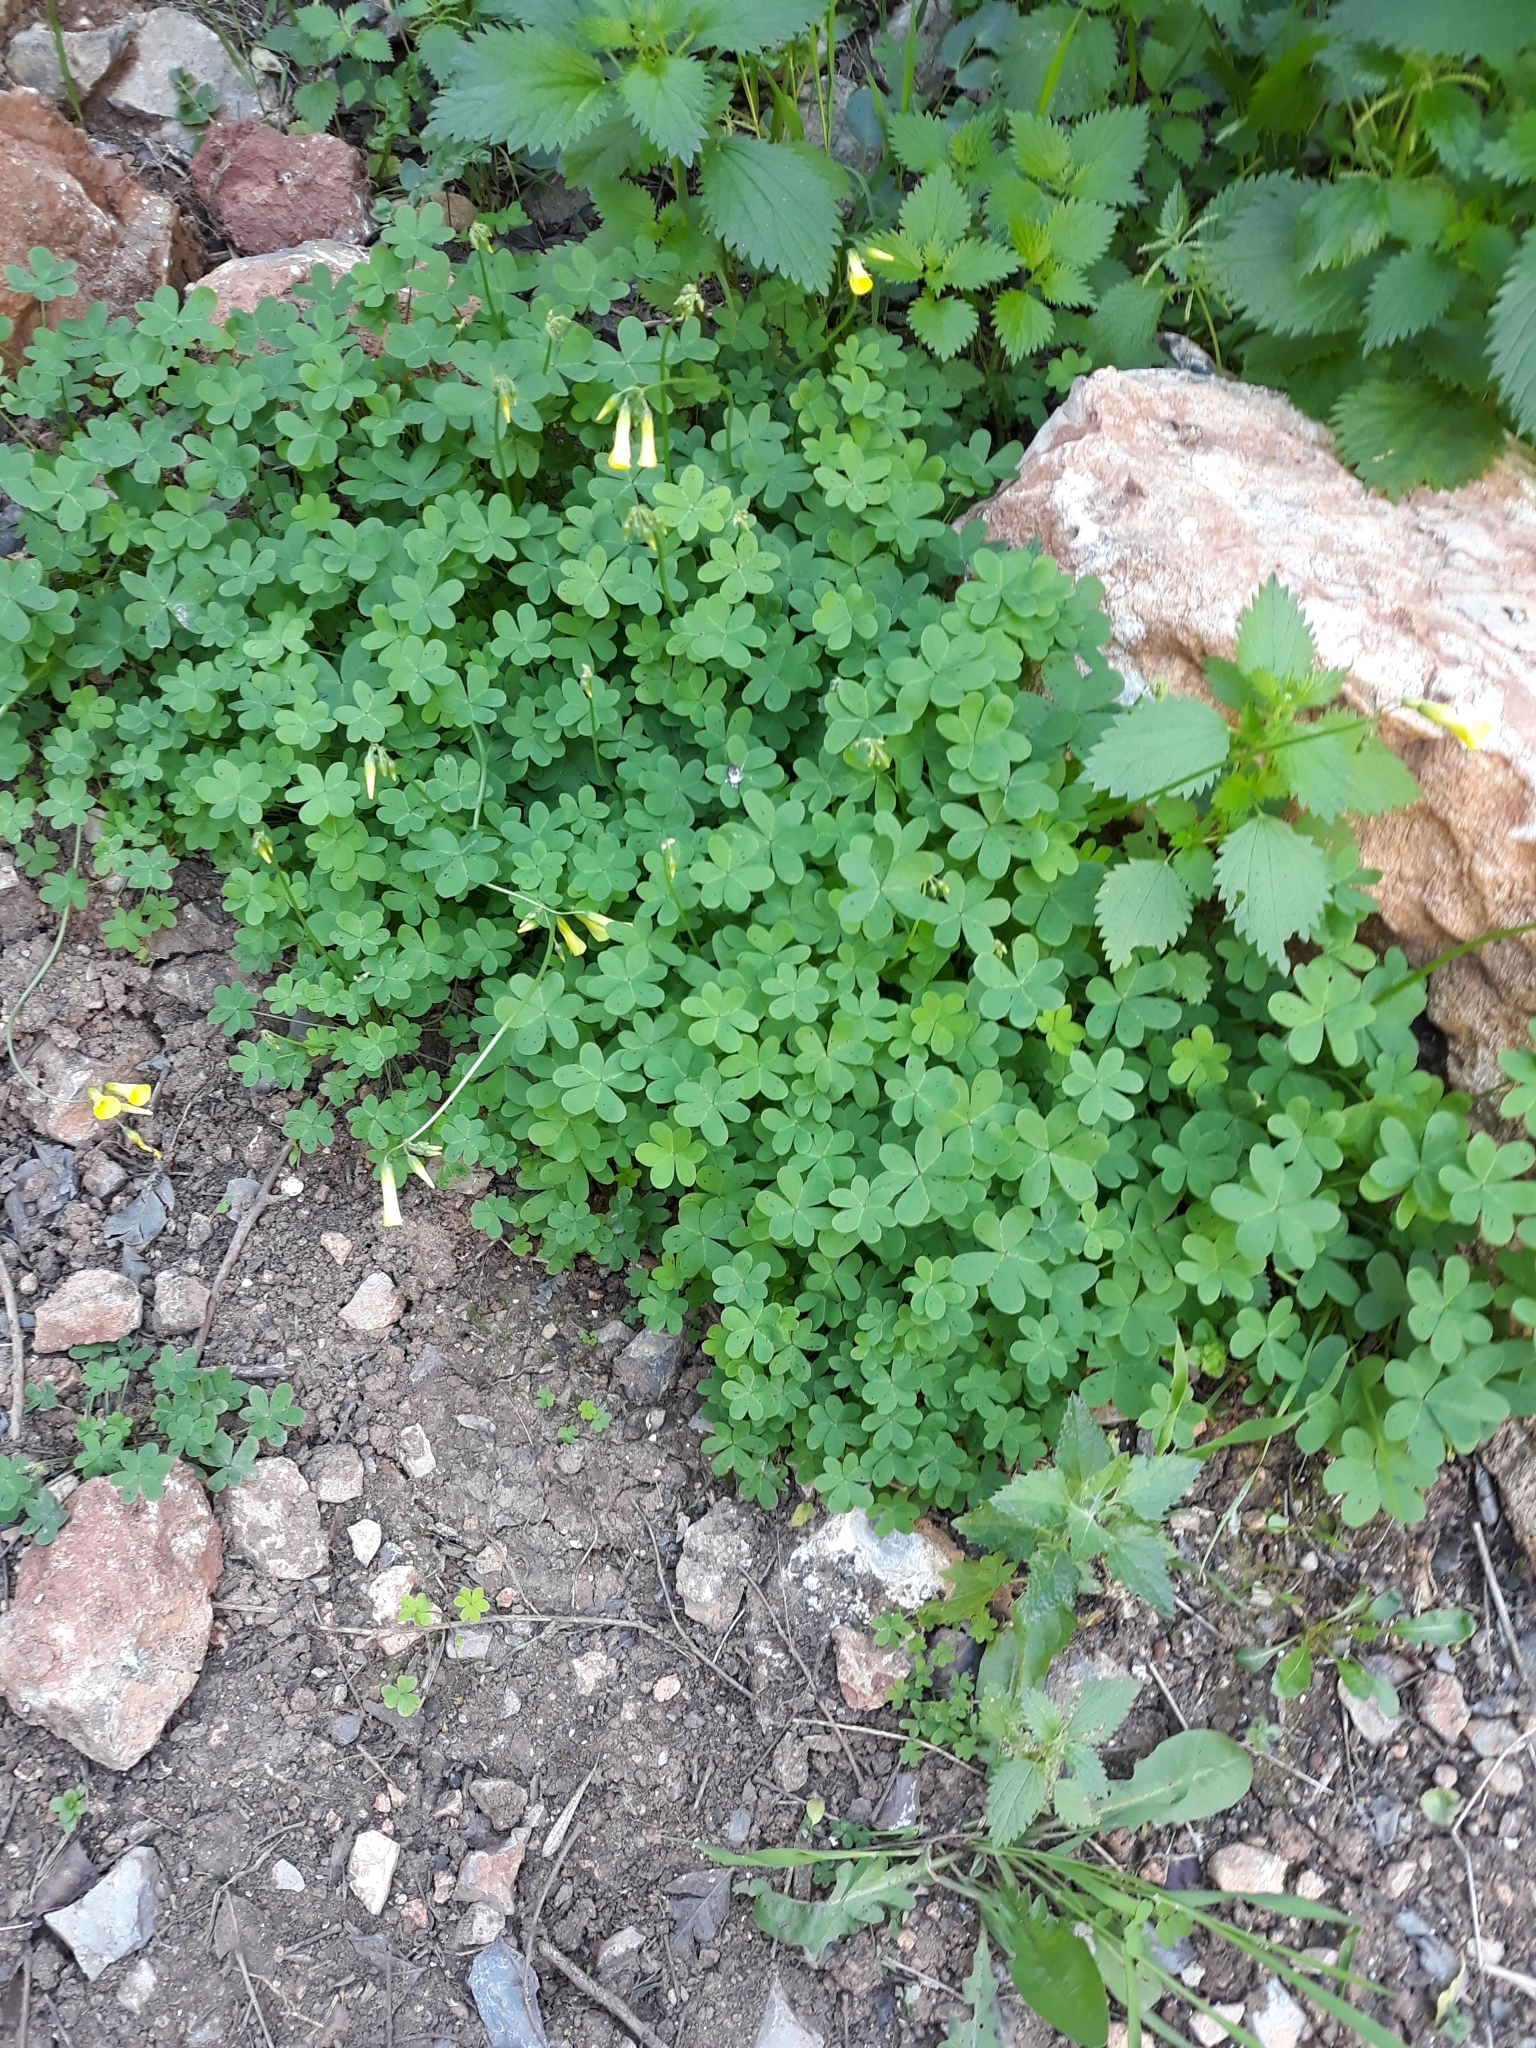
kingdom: Plantae
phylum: Tracheophyta
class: Magnoliopsida
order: Oxalidales
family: Oxalidaceae
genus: Oxalis
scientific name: Oxalis pes-caprae
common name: Bermuda-buttercup
